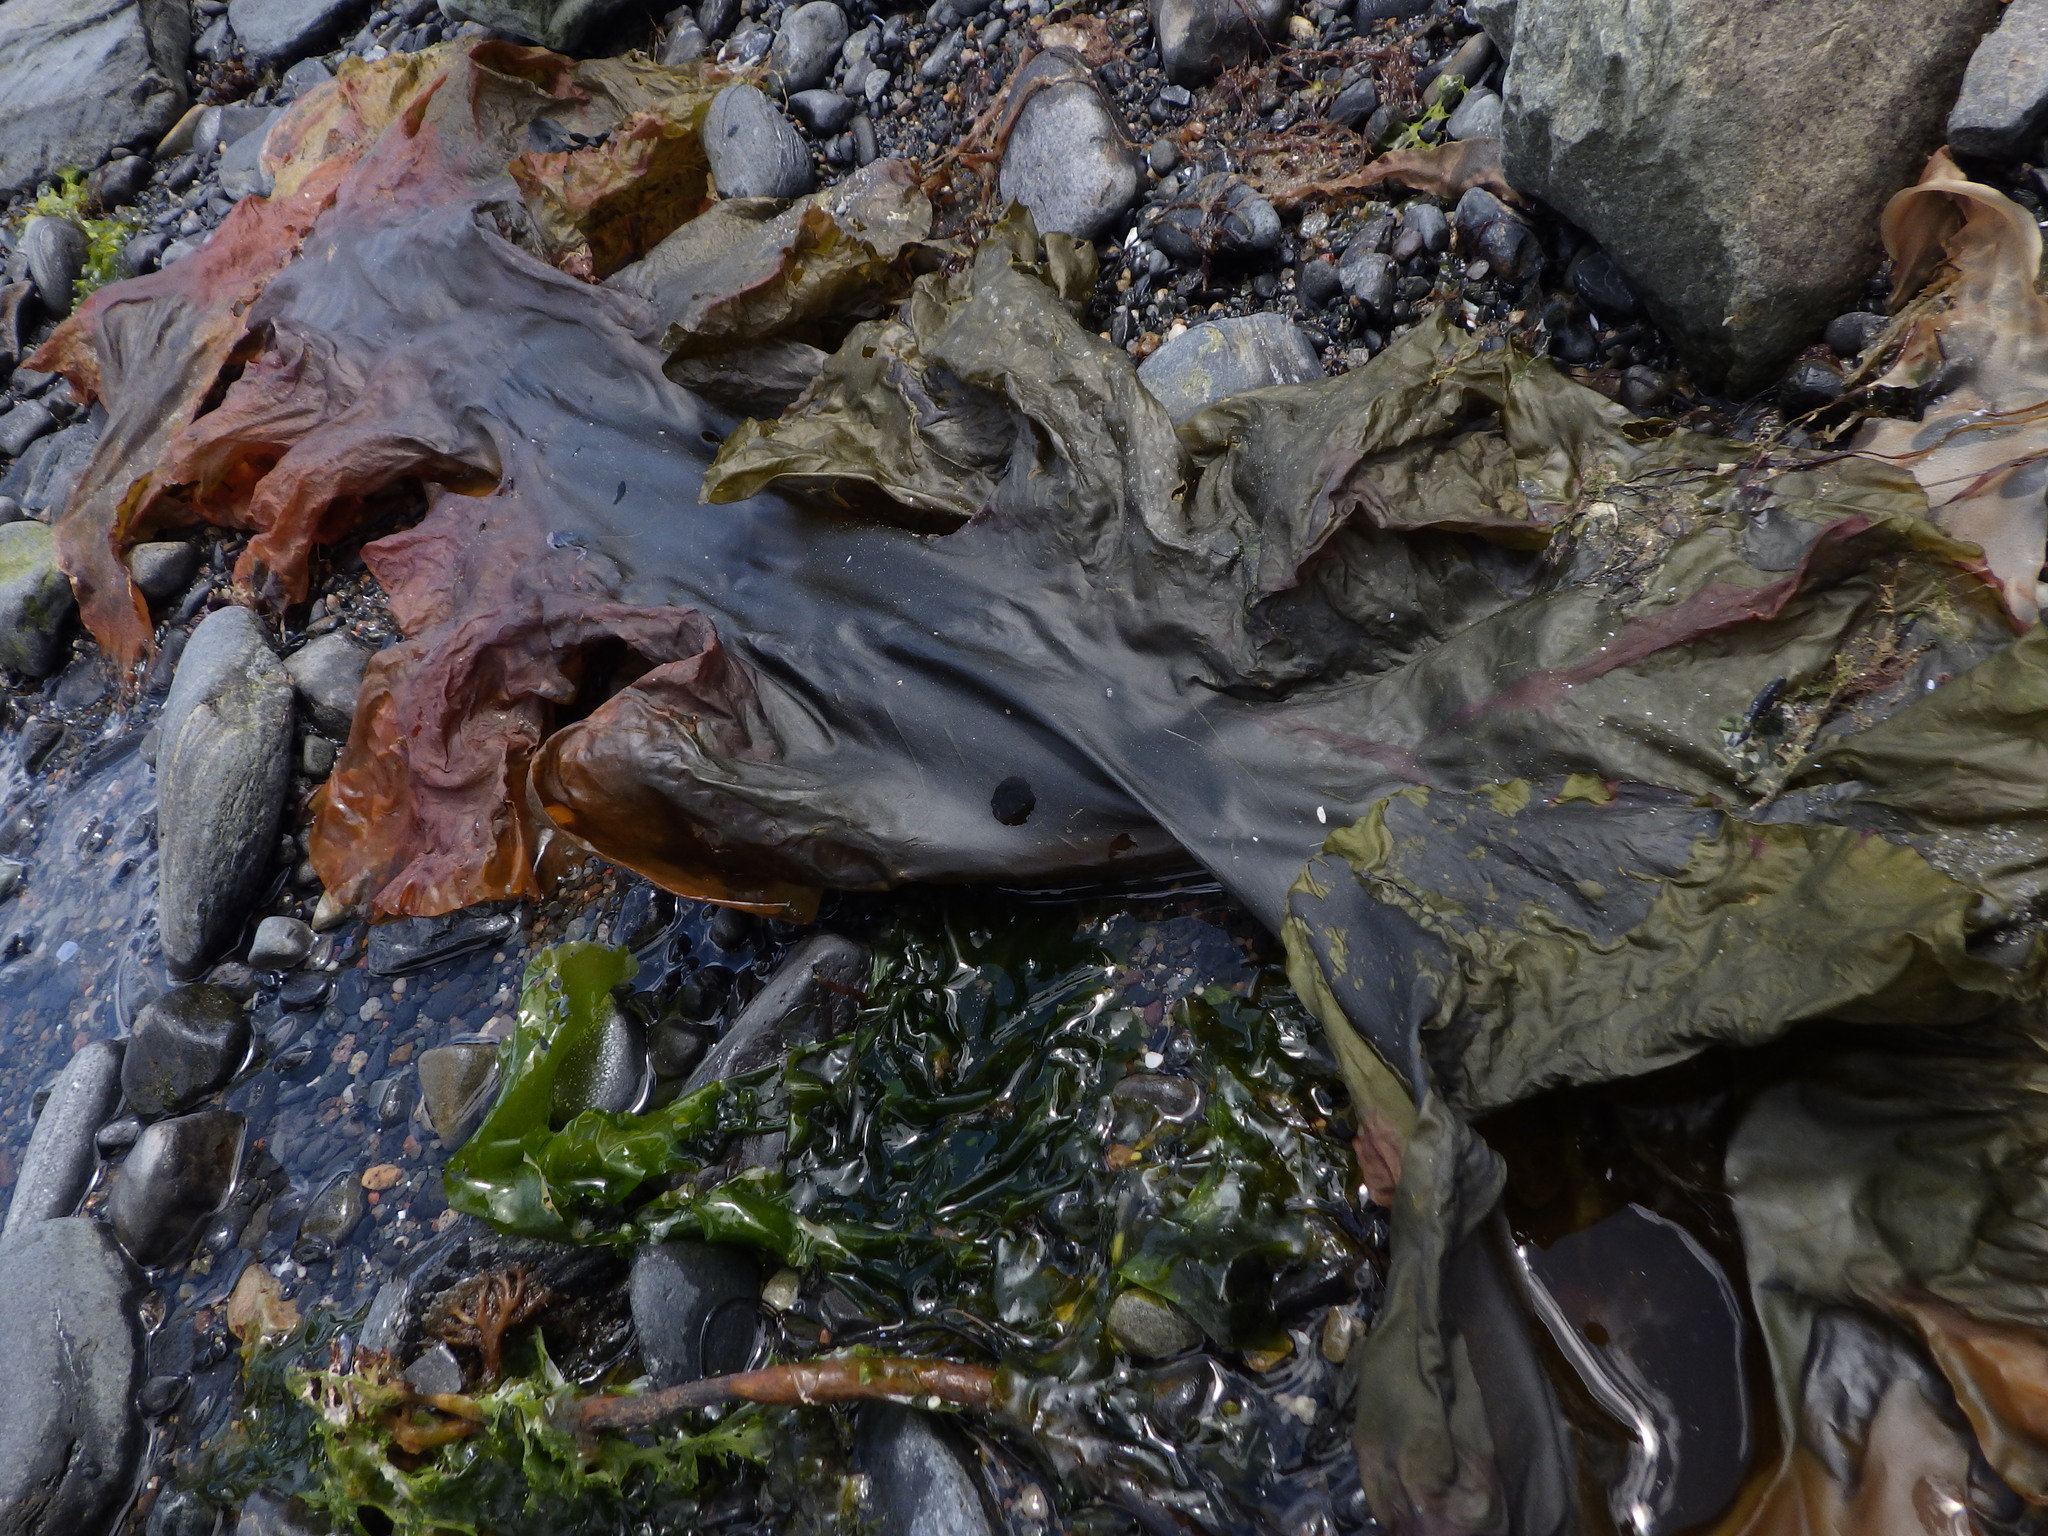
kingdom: Chromista
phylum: Ochrophyta
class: Phaeophyceae
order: Laminariales
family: Laminariaceae
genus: Saccharina
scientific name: Saccharina latissima
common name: Poor man's weather glass
